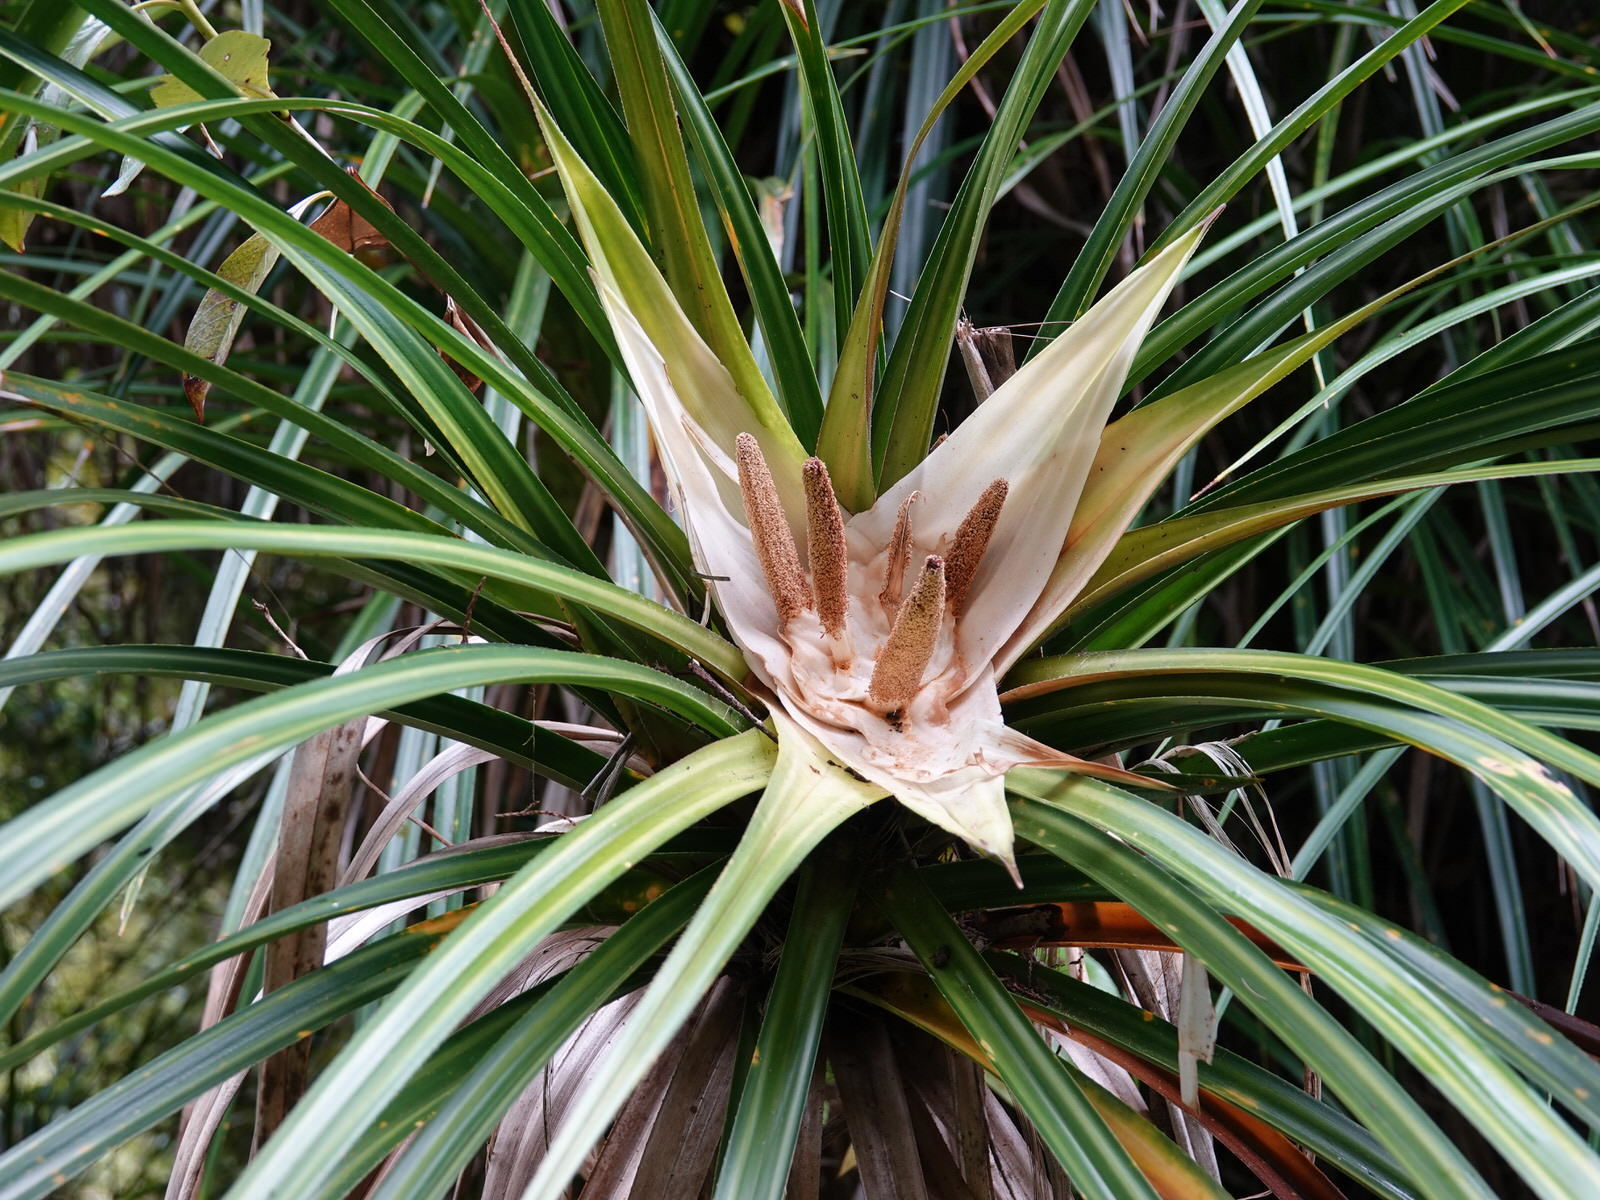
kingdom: Plantae
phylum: Tracheophyta
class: Liliopsida
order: Pandanales
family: Pandanaceae
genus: Freycinetia
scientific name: Freycinetia banksii
